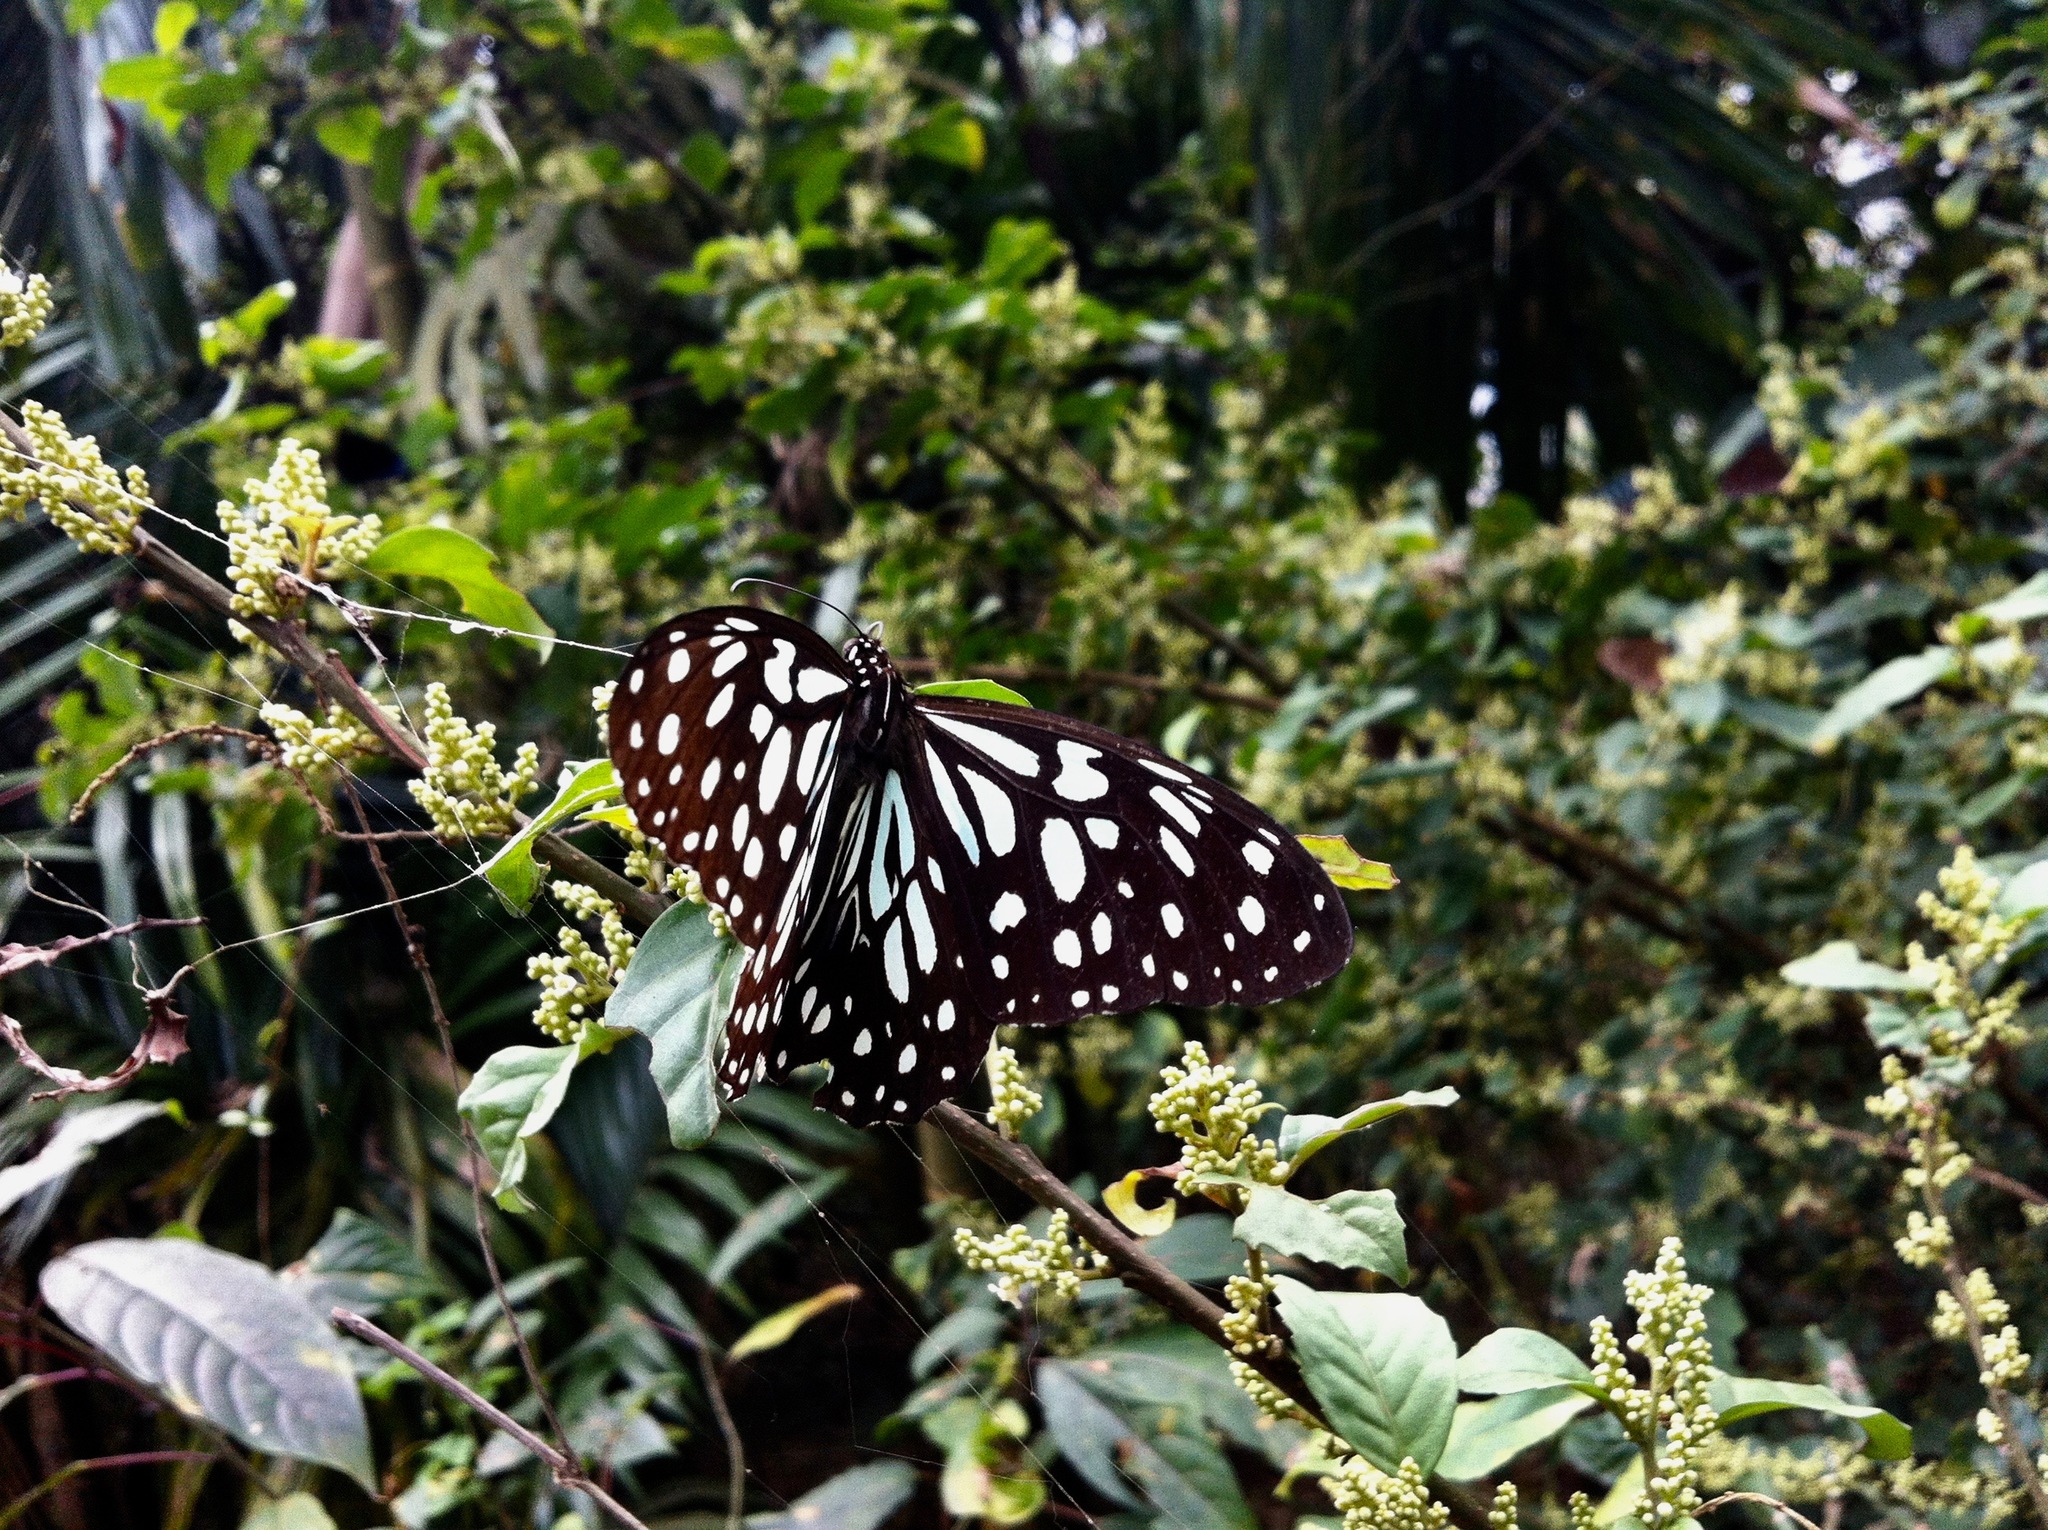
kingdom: Animalia
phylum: Arthropoda
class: Insecta
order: Lepidoptera
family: Nymphalidae
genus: Tirumala
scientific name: Tirumala limniace
